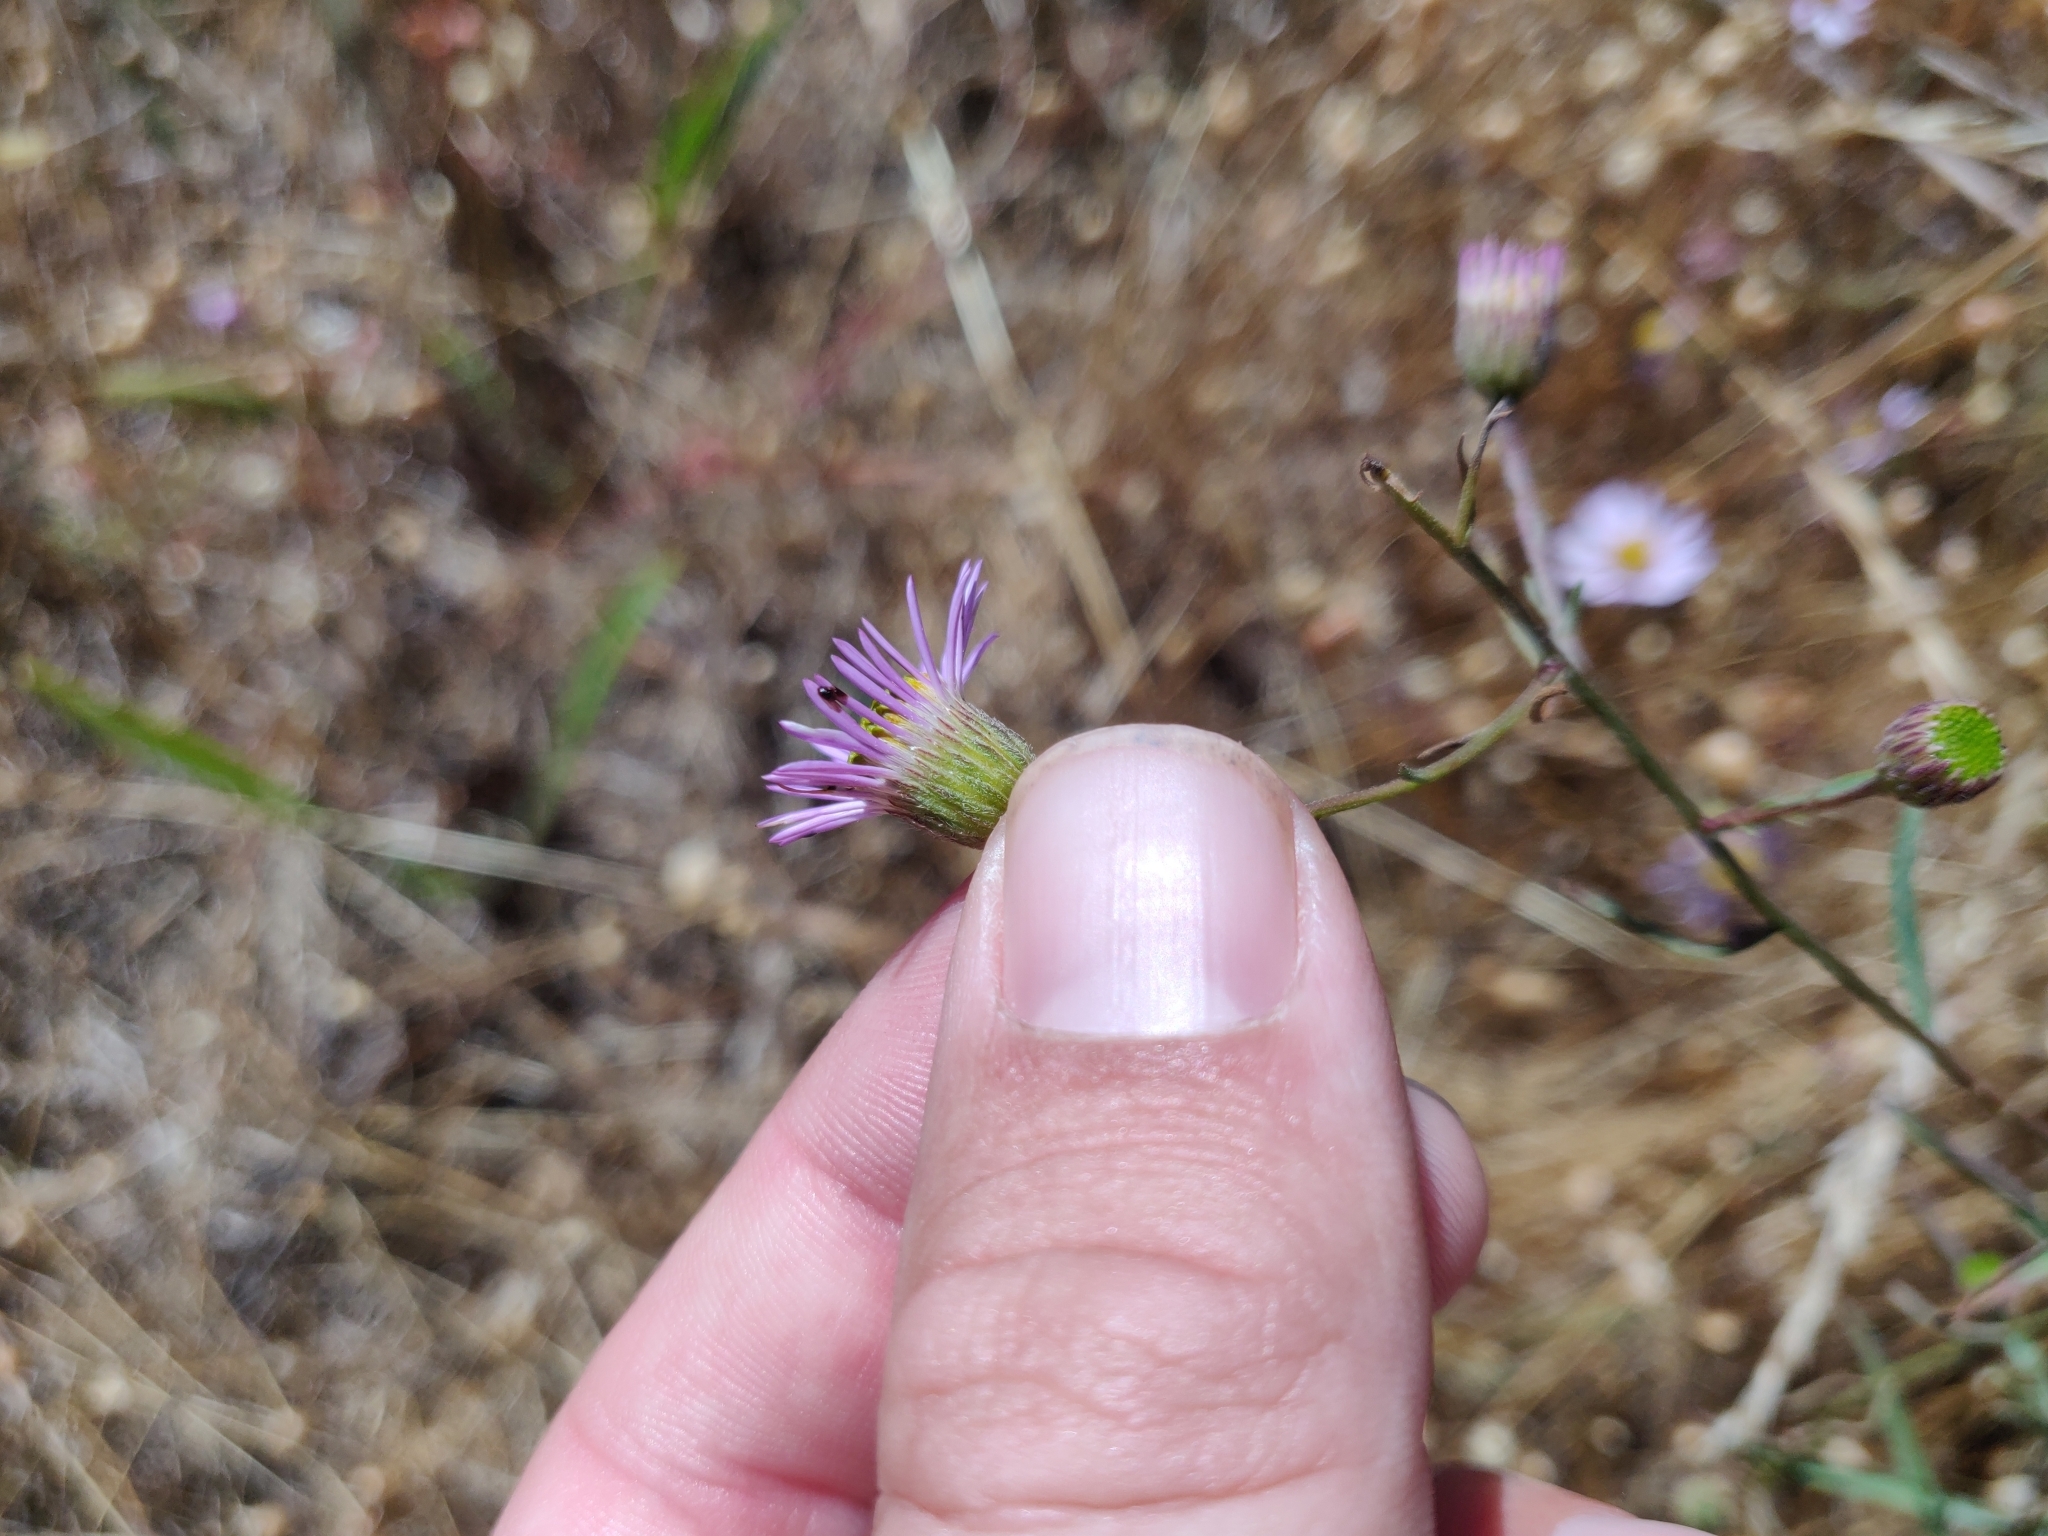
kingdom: Plantae
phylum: Tracheophyta
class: Magnoliopsida
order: Asterales
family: Asteraceae
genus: Erigeron
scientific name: Erigeron foliosus
